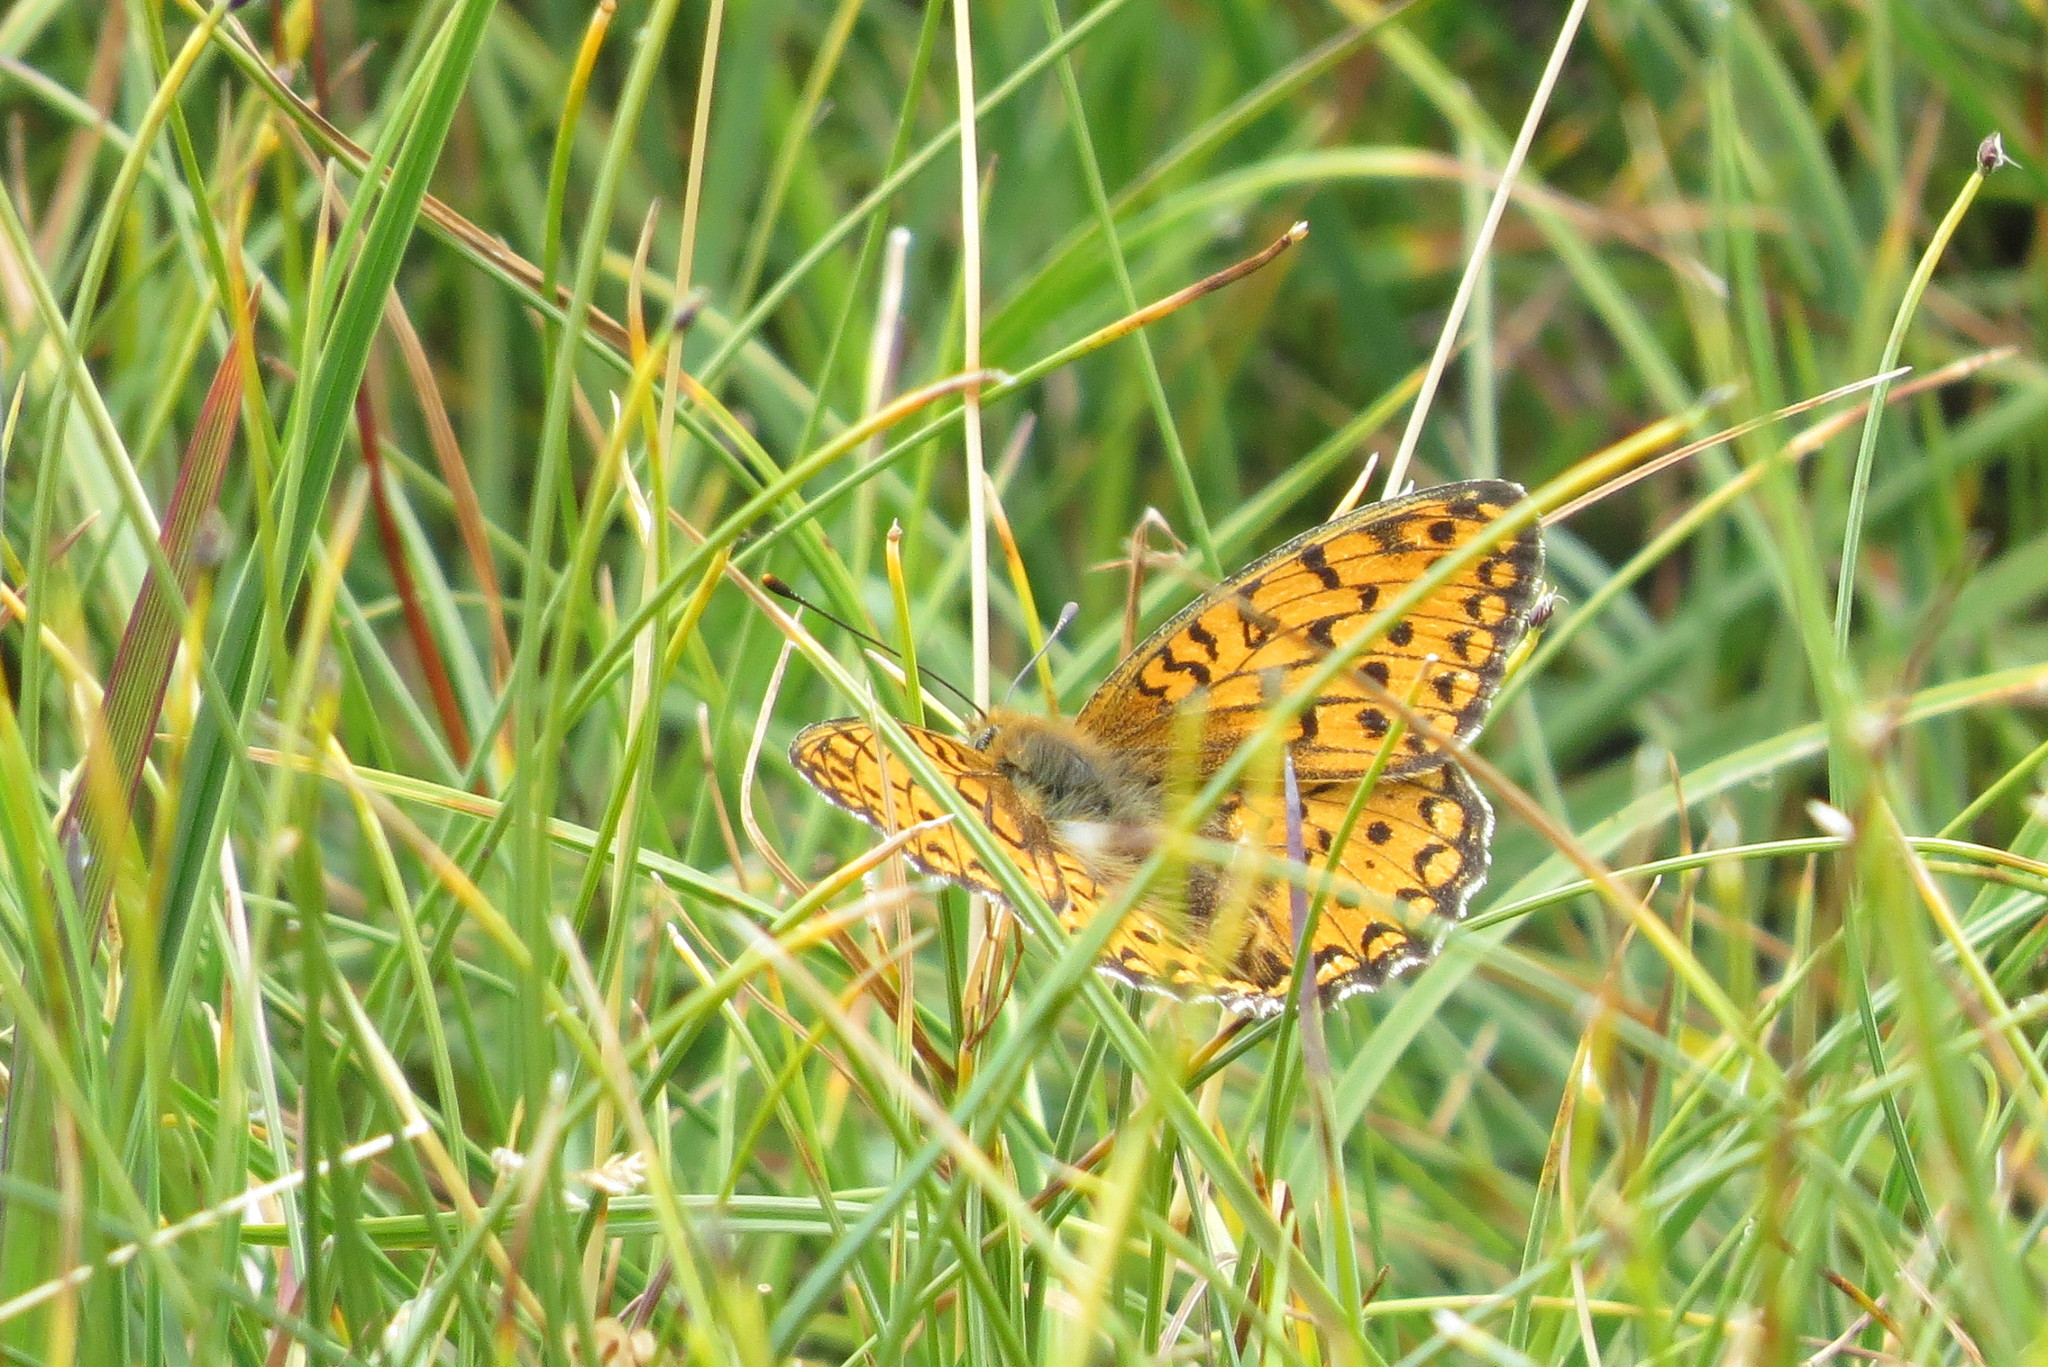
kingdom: Animalia
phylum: Arthropoda
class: Insecta
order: Lepidoptera
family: Nymphalidae
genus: Fabriciana
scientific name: Fabriciana niobe
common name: Niobe fritillary
